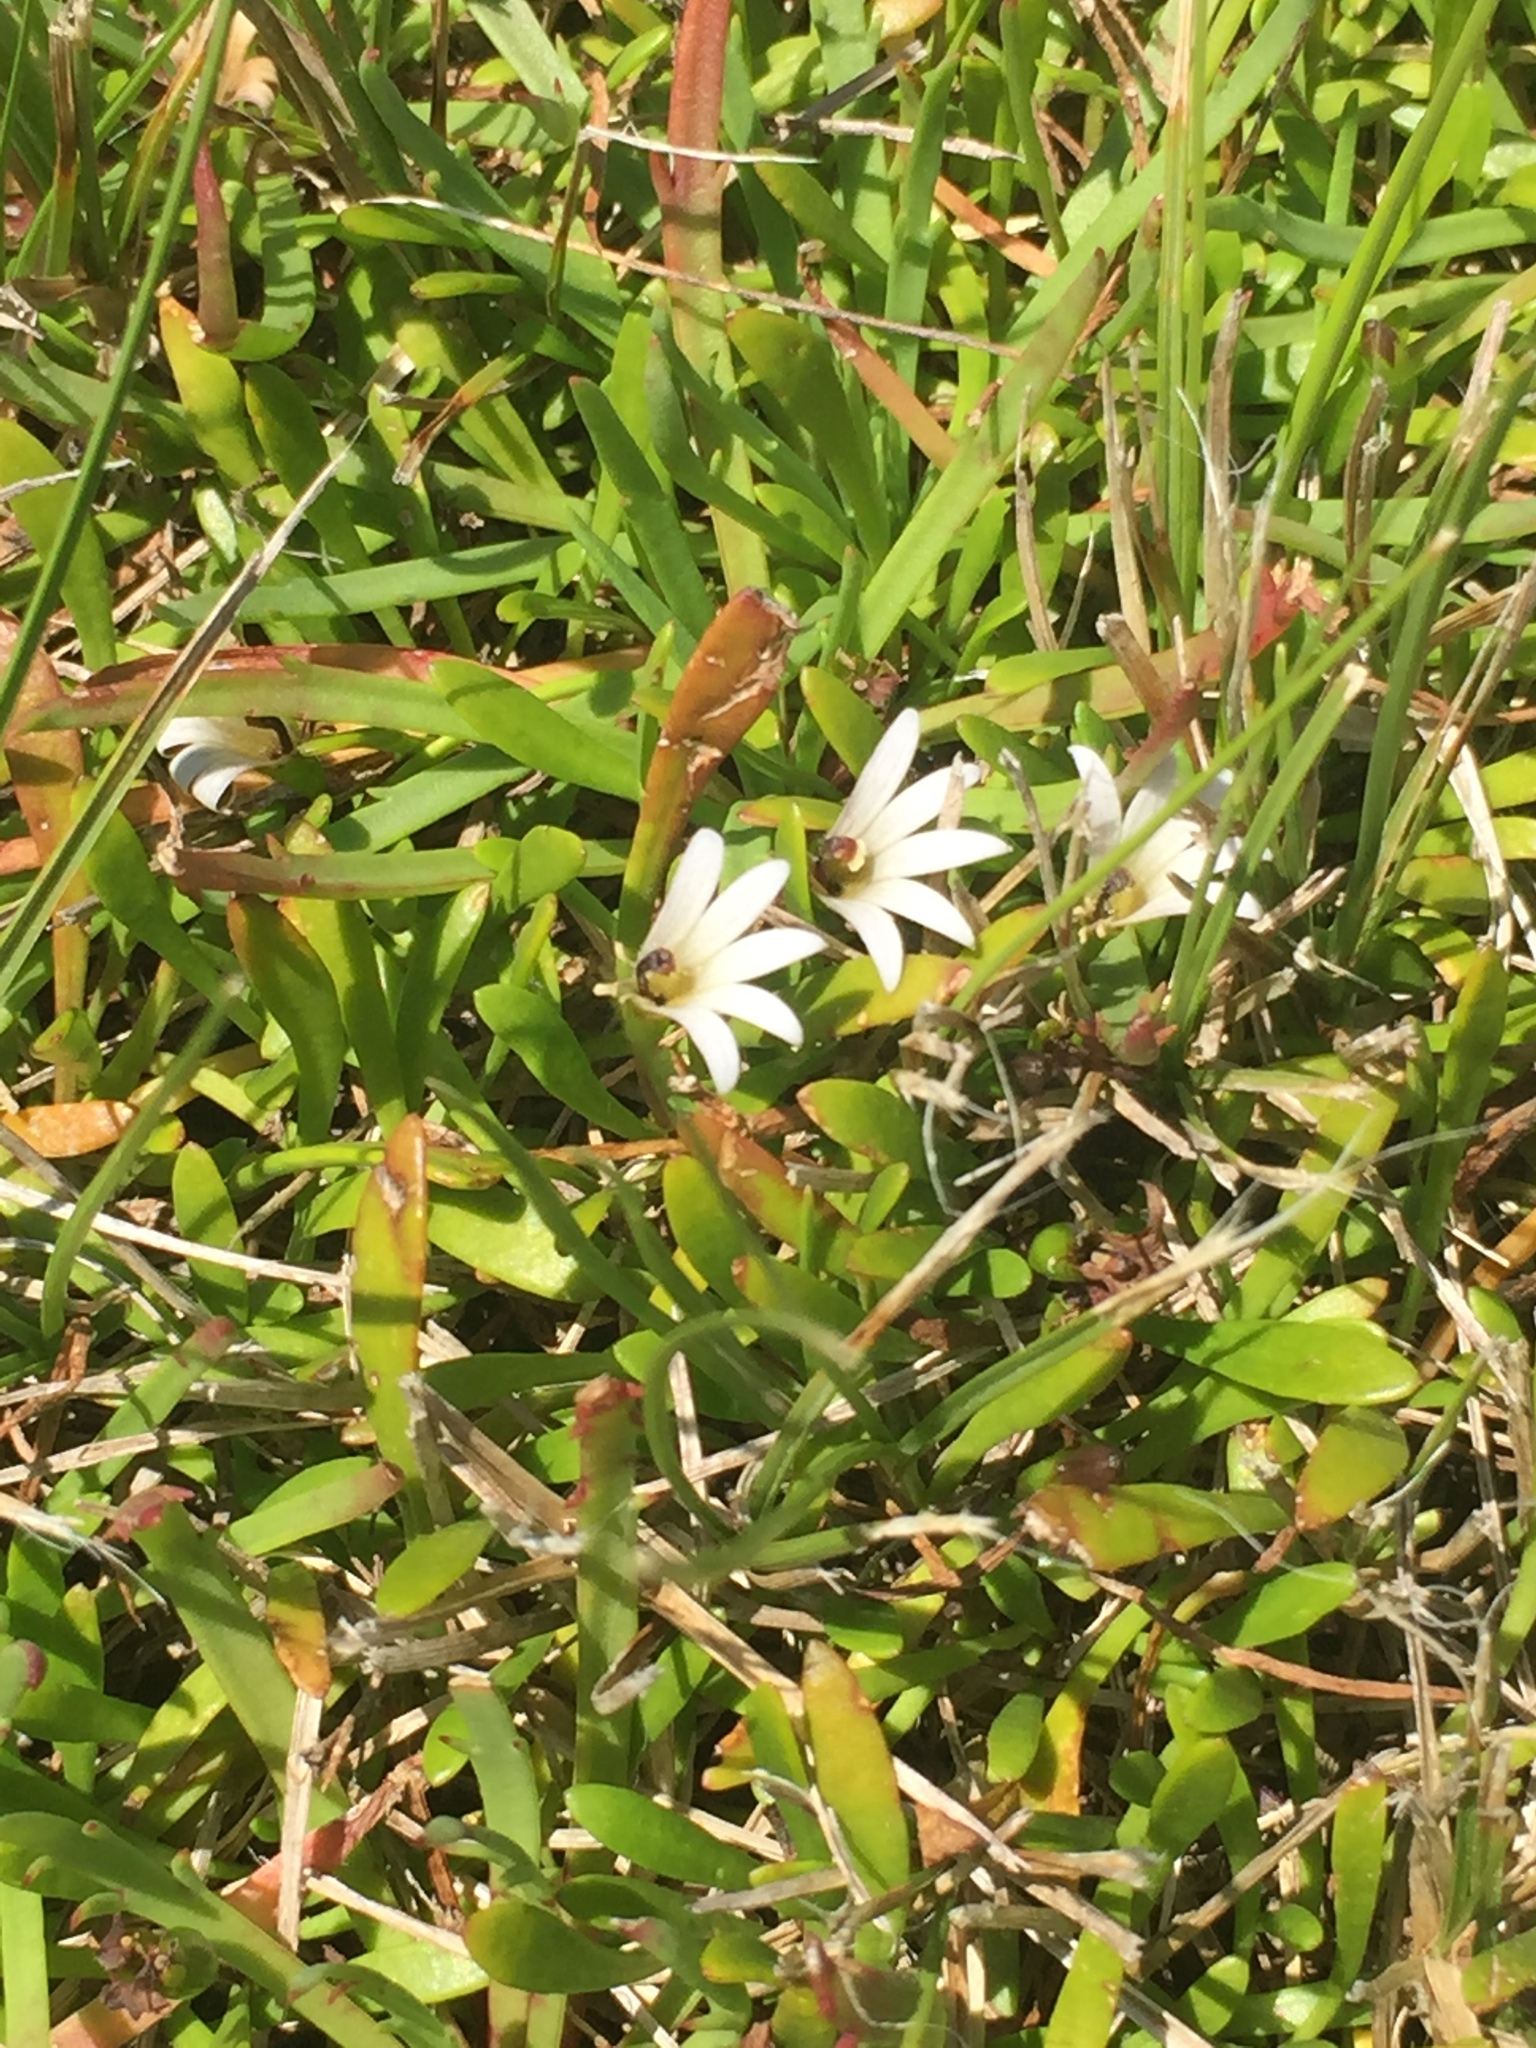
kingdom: Plantae
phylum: Tracheophyta
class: Magnoliopsida
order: Asterales
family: Goodeniaceae
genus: Goodenia
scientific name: Goodenia radicans
